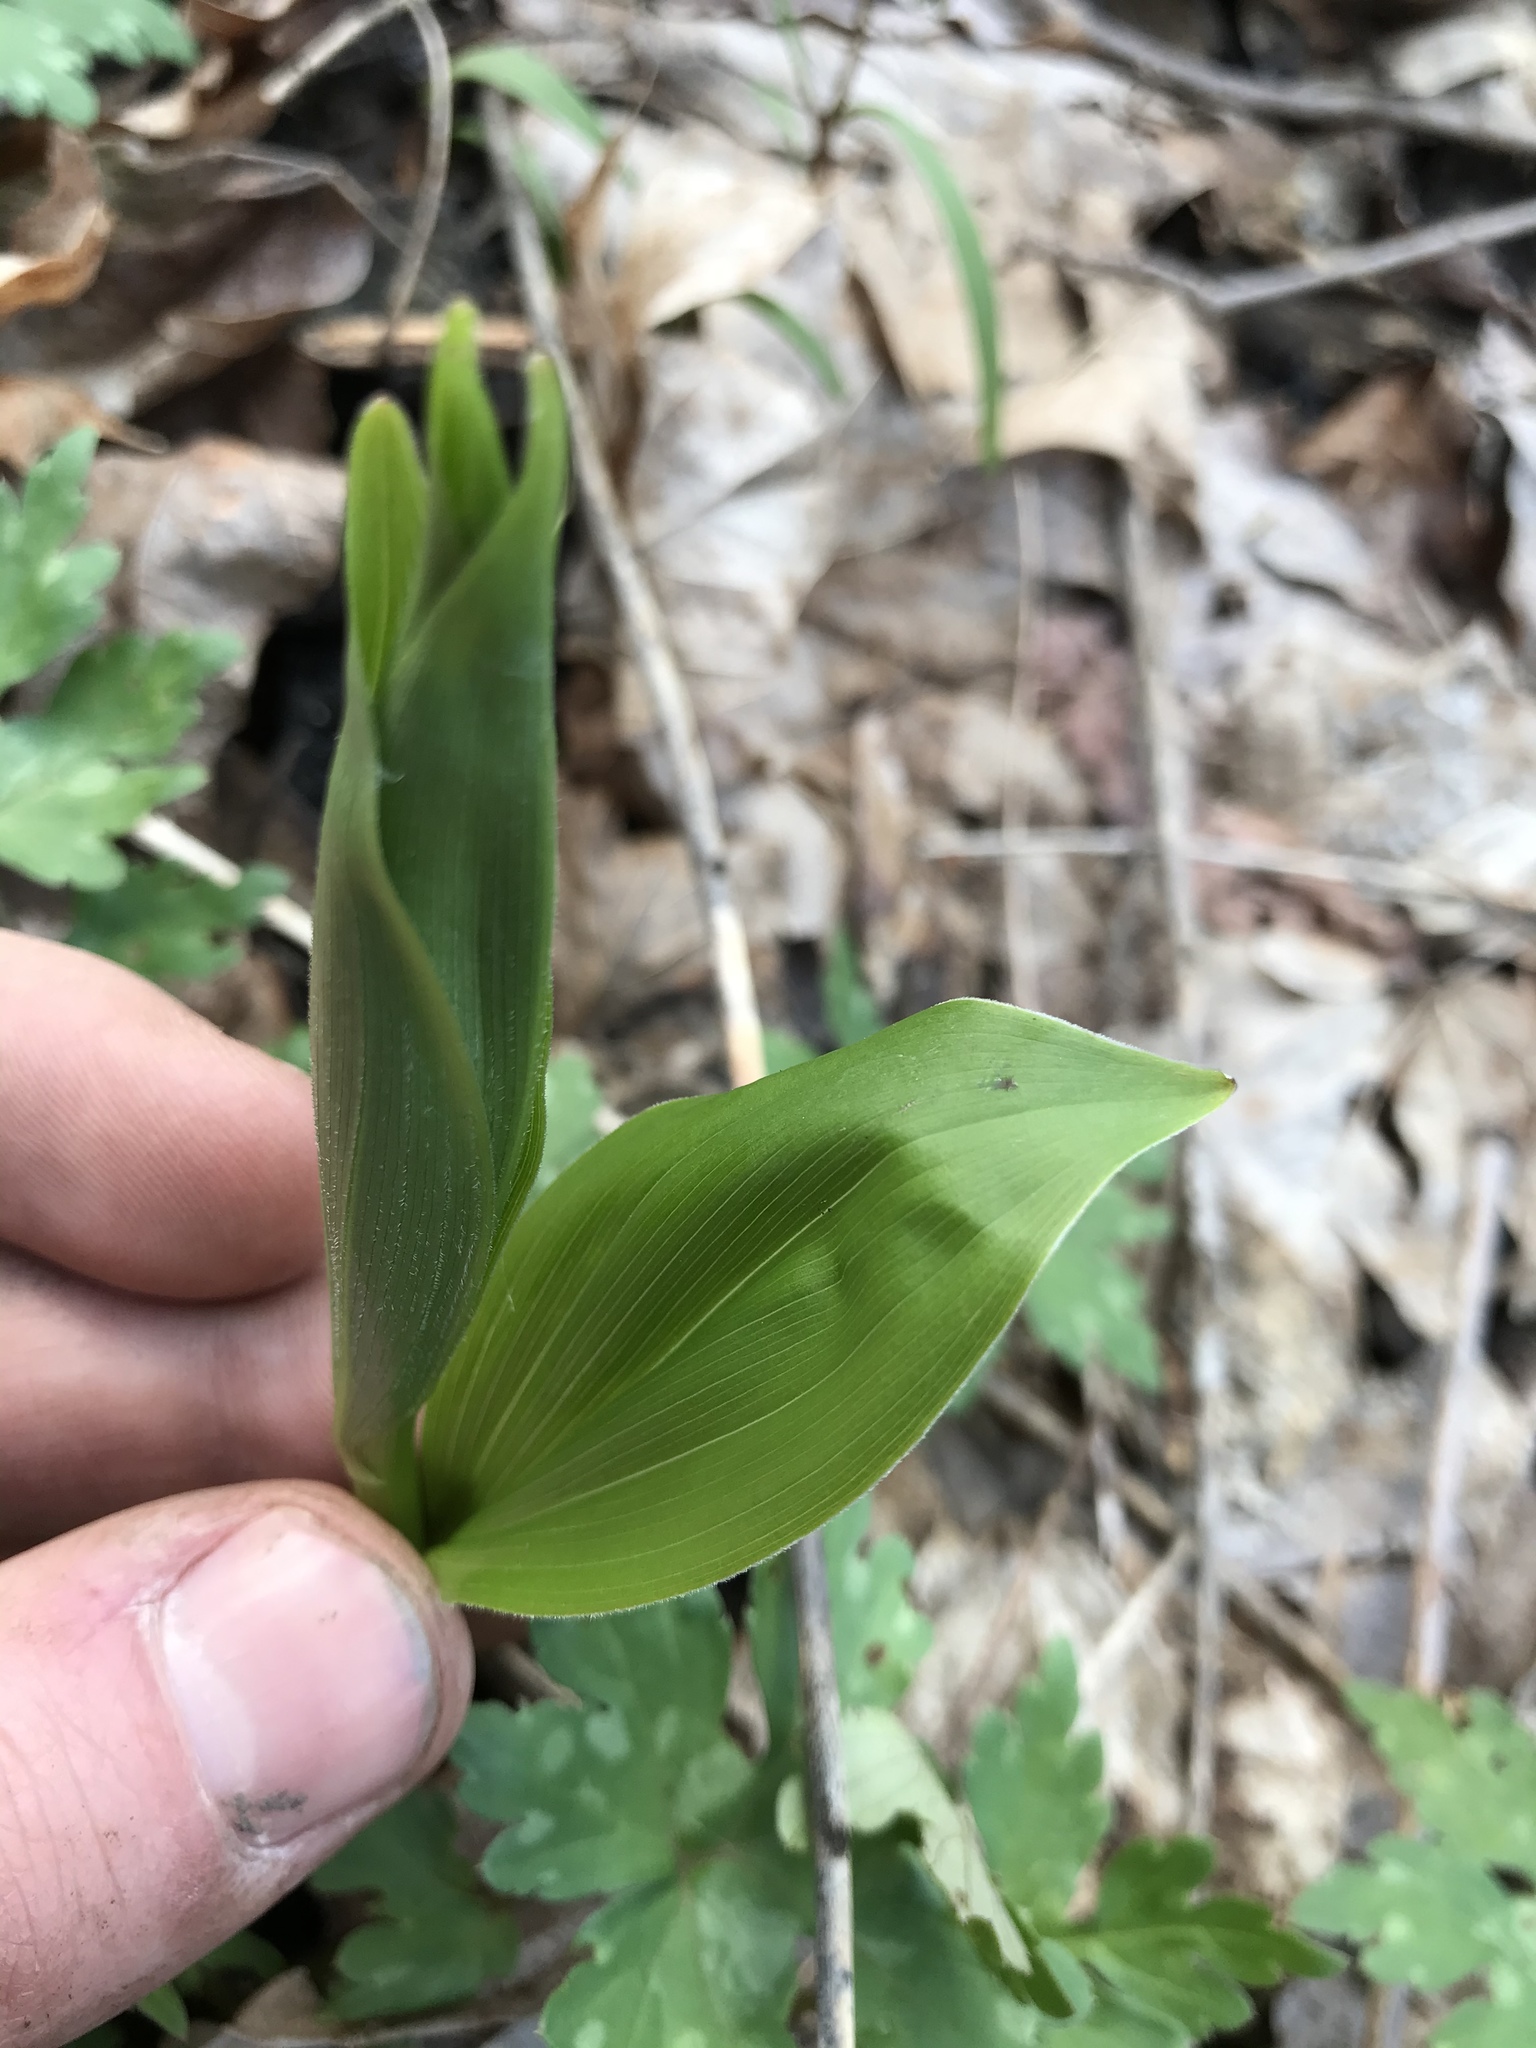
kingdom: Plantae
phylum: Tracheophyta
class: Liliopsida
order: Asparagales
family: Asparagaceae
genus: Maianthemum
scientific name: Maianthemum racemosum
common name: False spikenard
